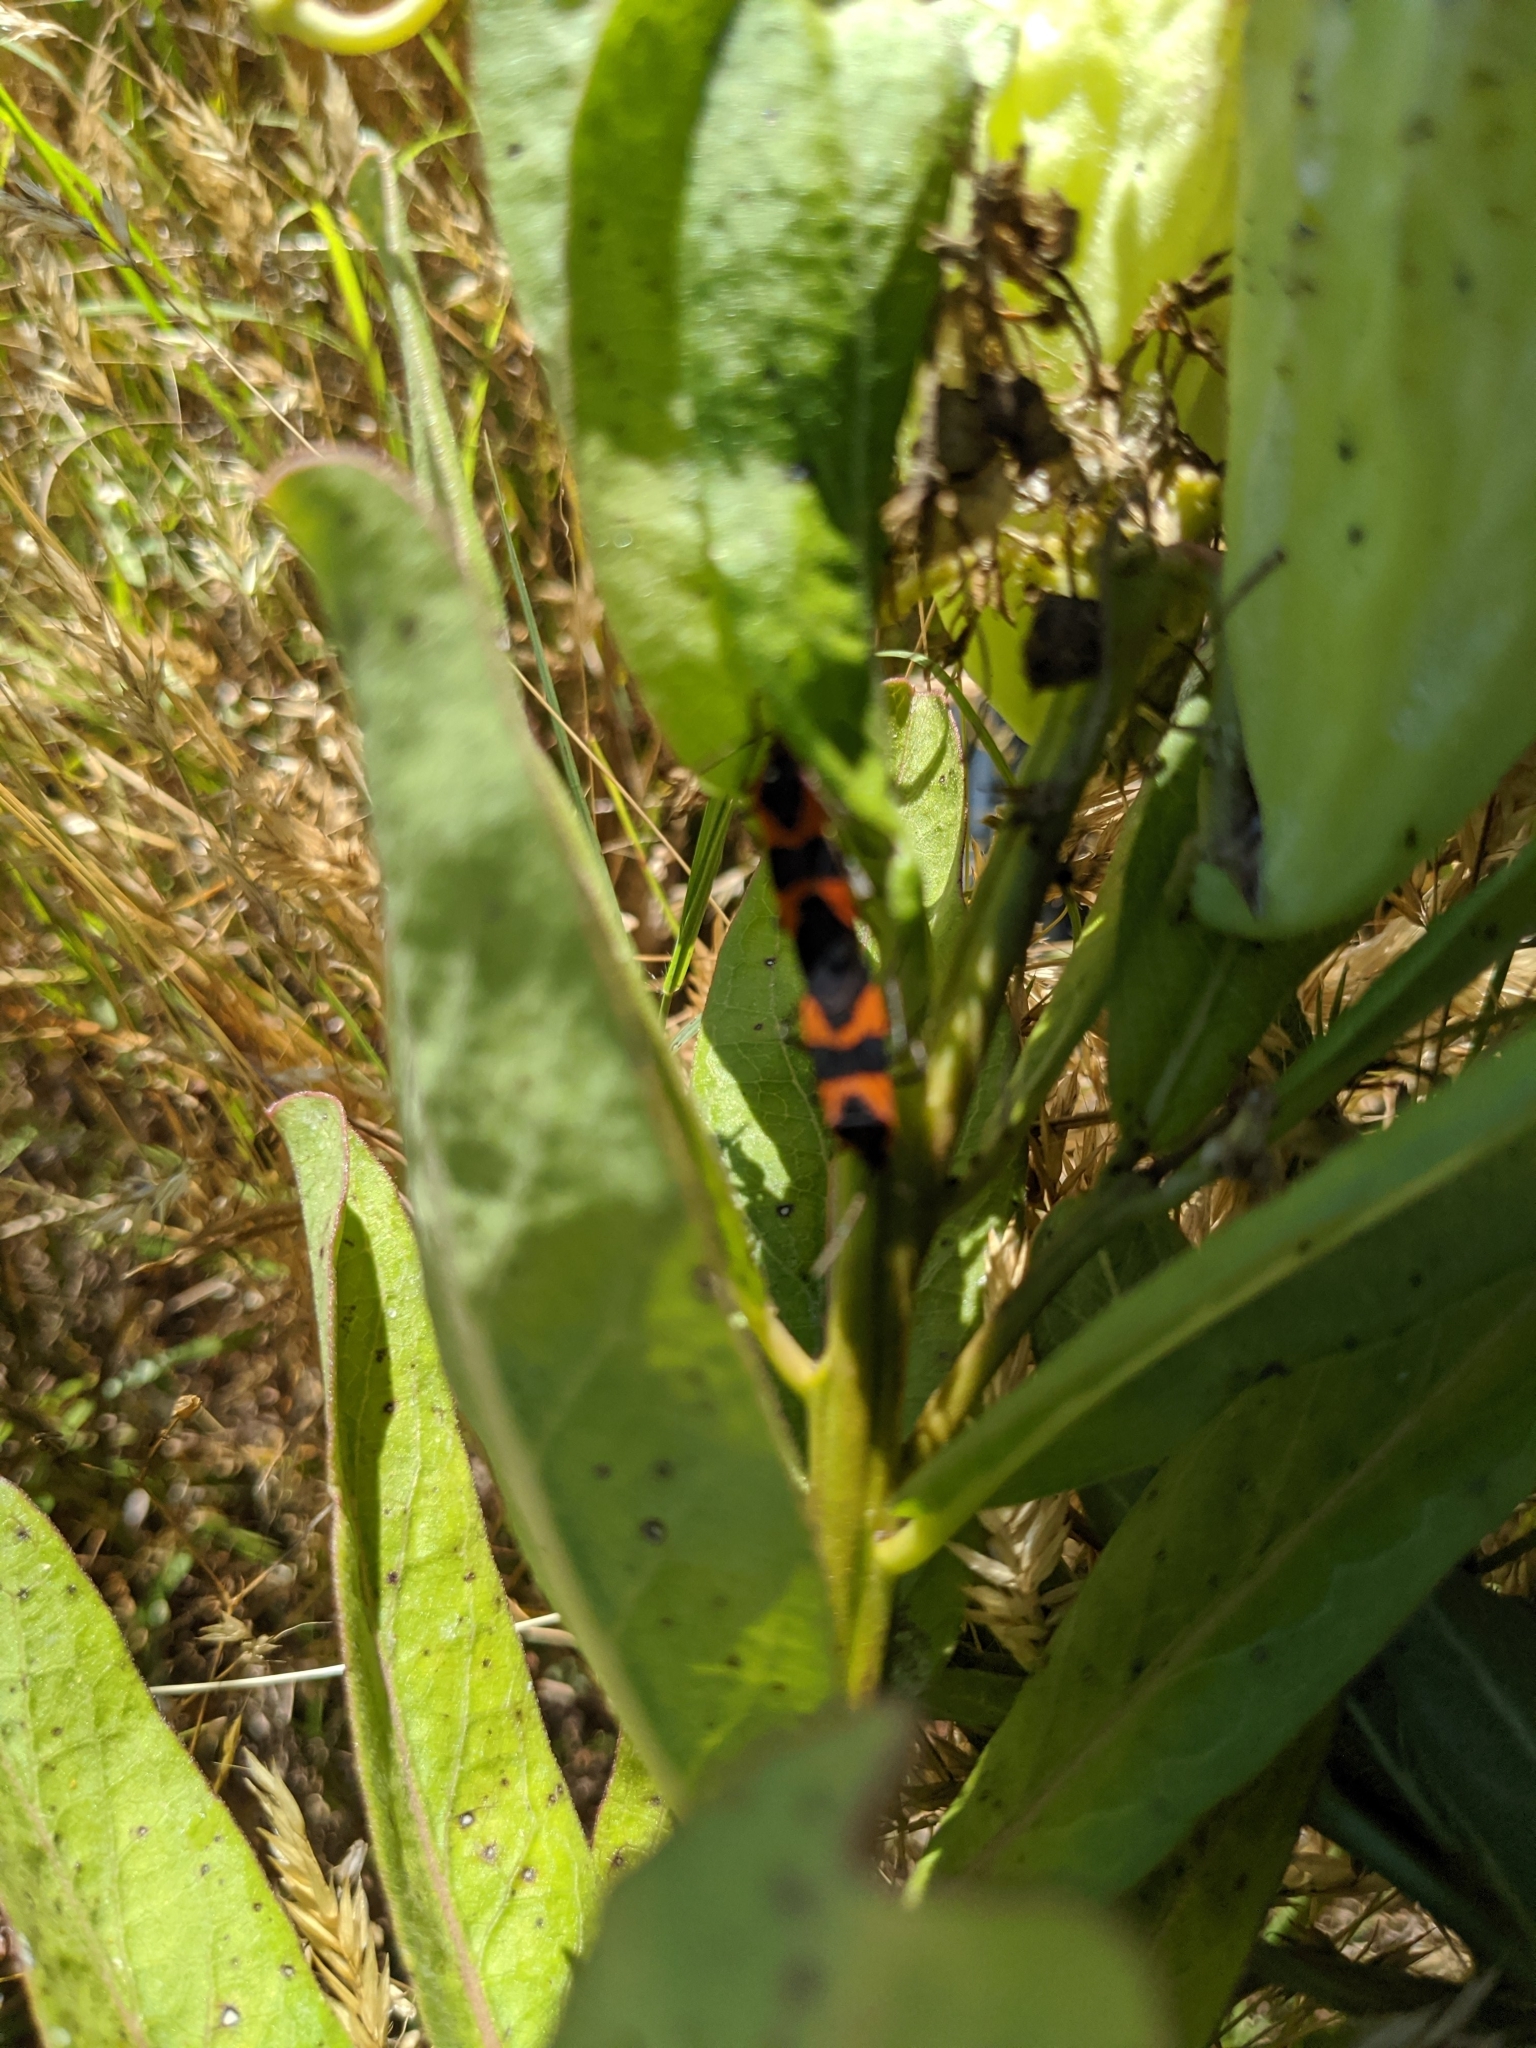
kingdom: Animalia
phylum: Arthropoda
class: Insecta
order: Hemiptera
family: Lygaeidae
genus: Oncopeltus
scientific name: Oncopeltus fasciatus
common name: Large milkweed bug
